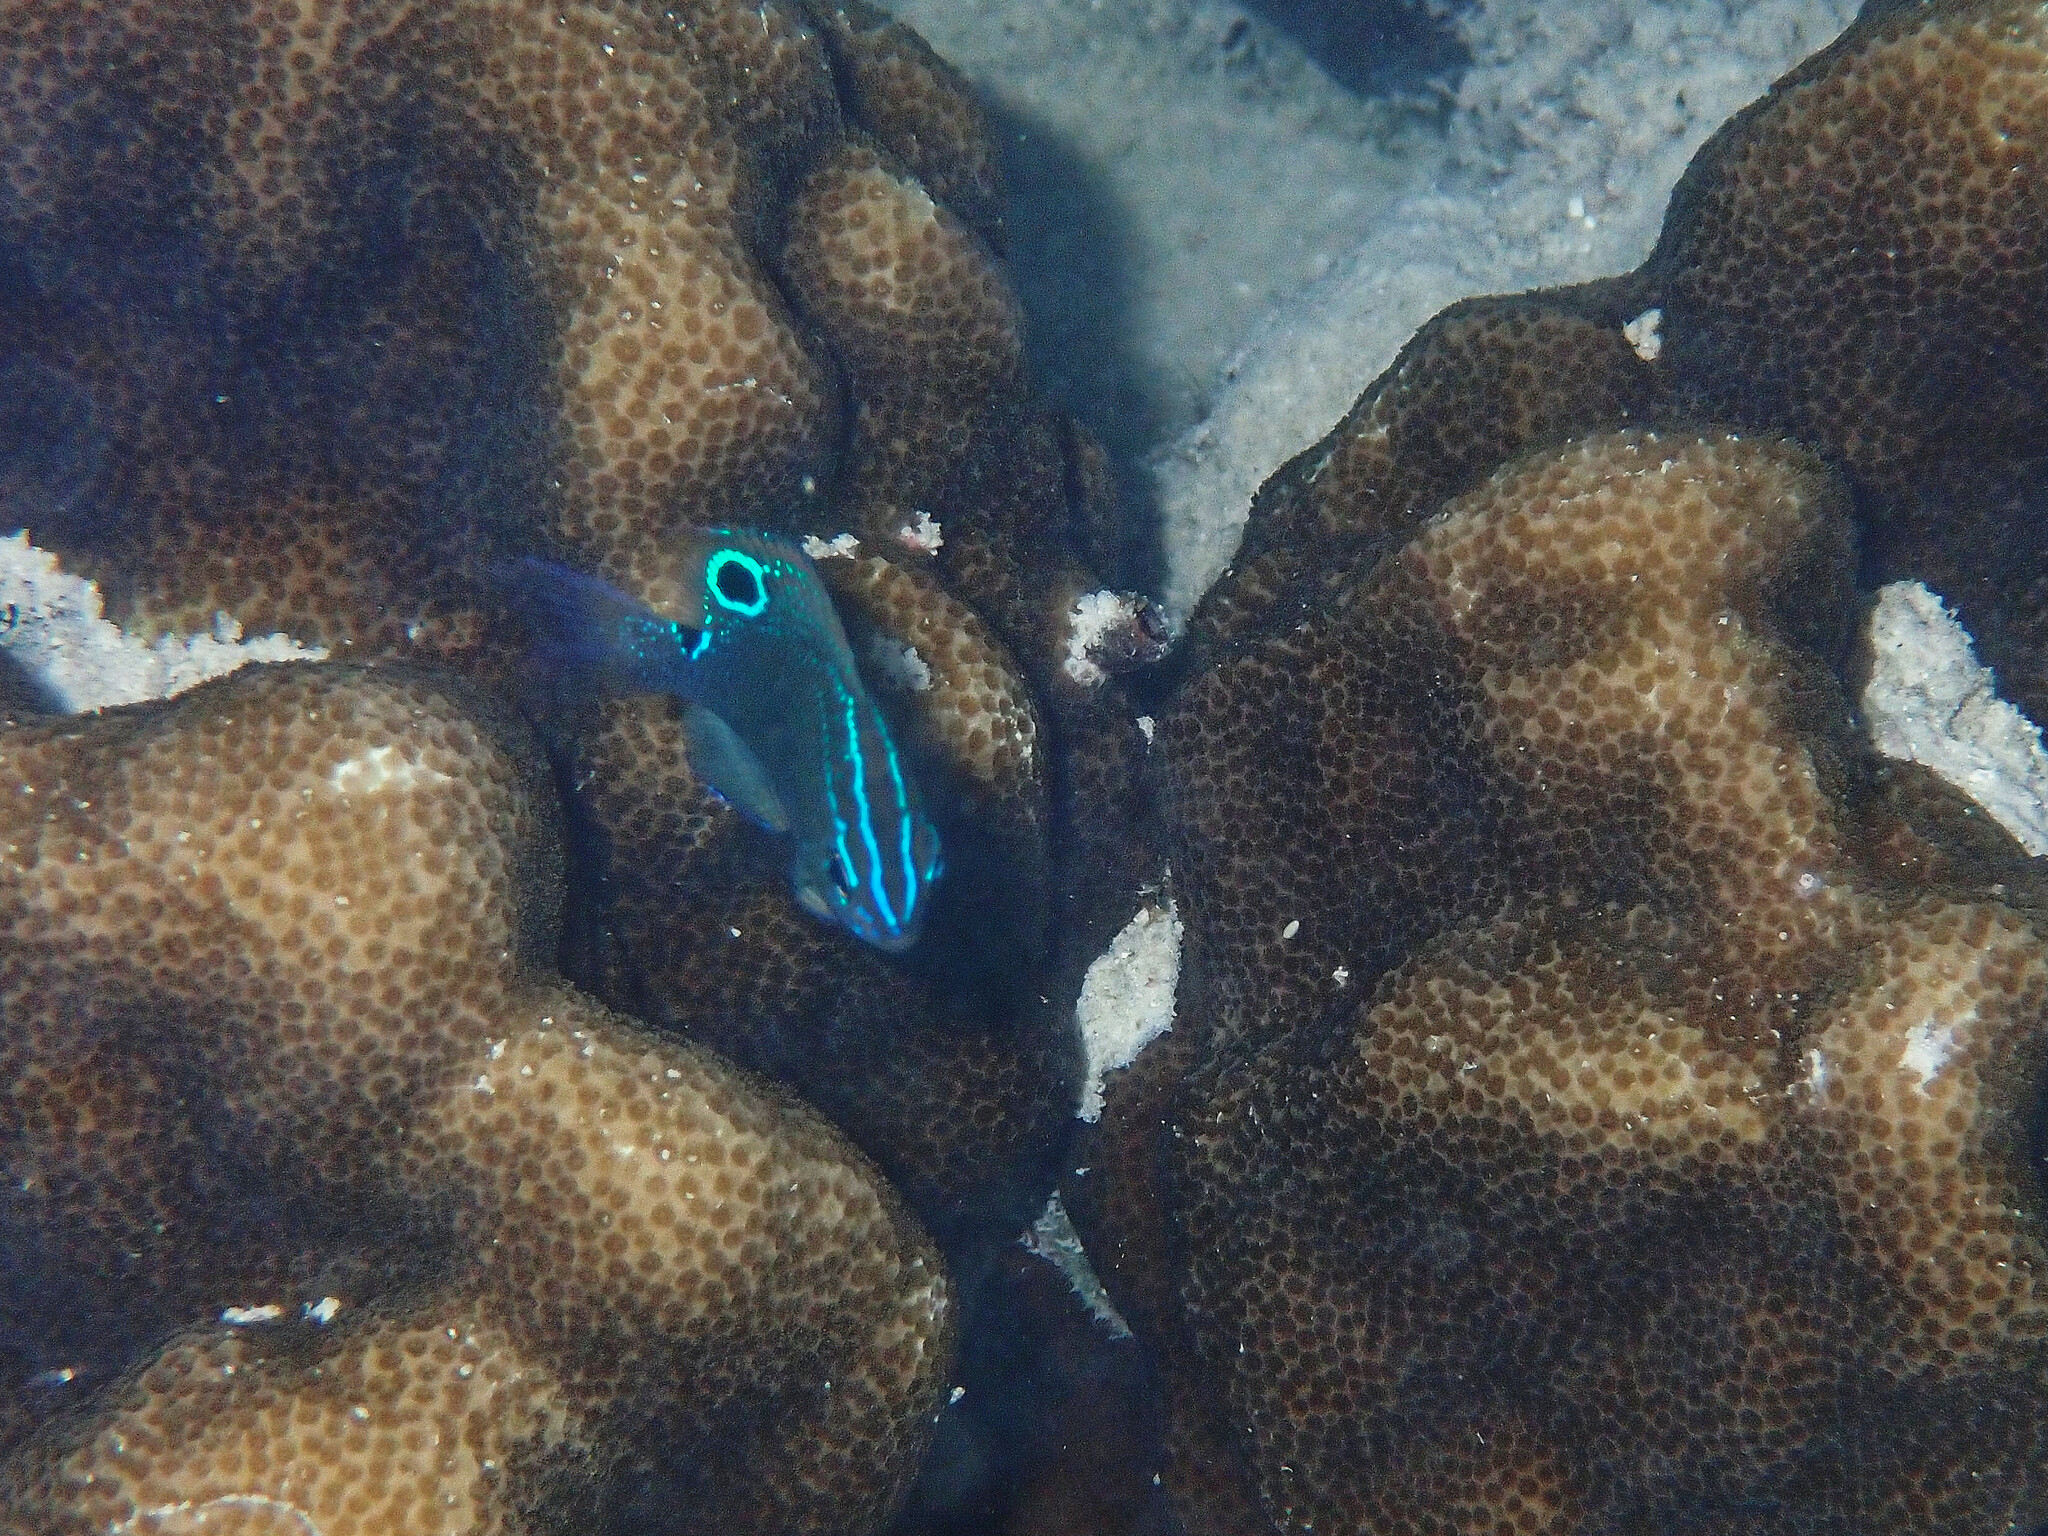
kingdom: Animalia
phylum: Chordata
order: Perciformes
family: Pomacentridae
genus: Pomacentrus
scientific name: Pomacentrus tripunctatus
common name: Threespot damsel
